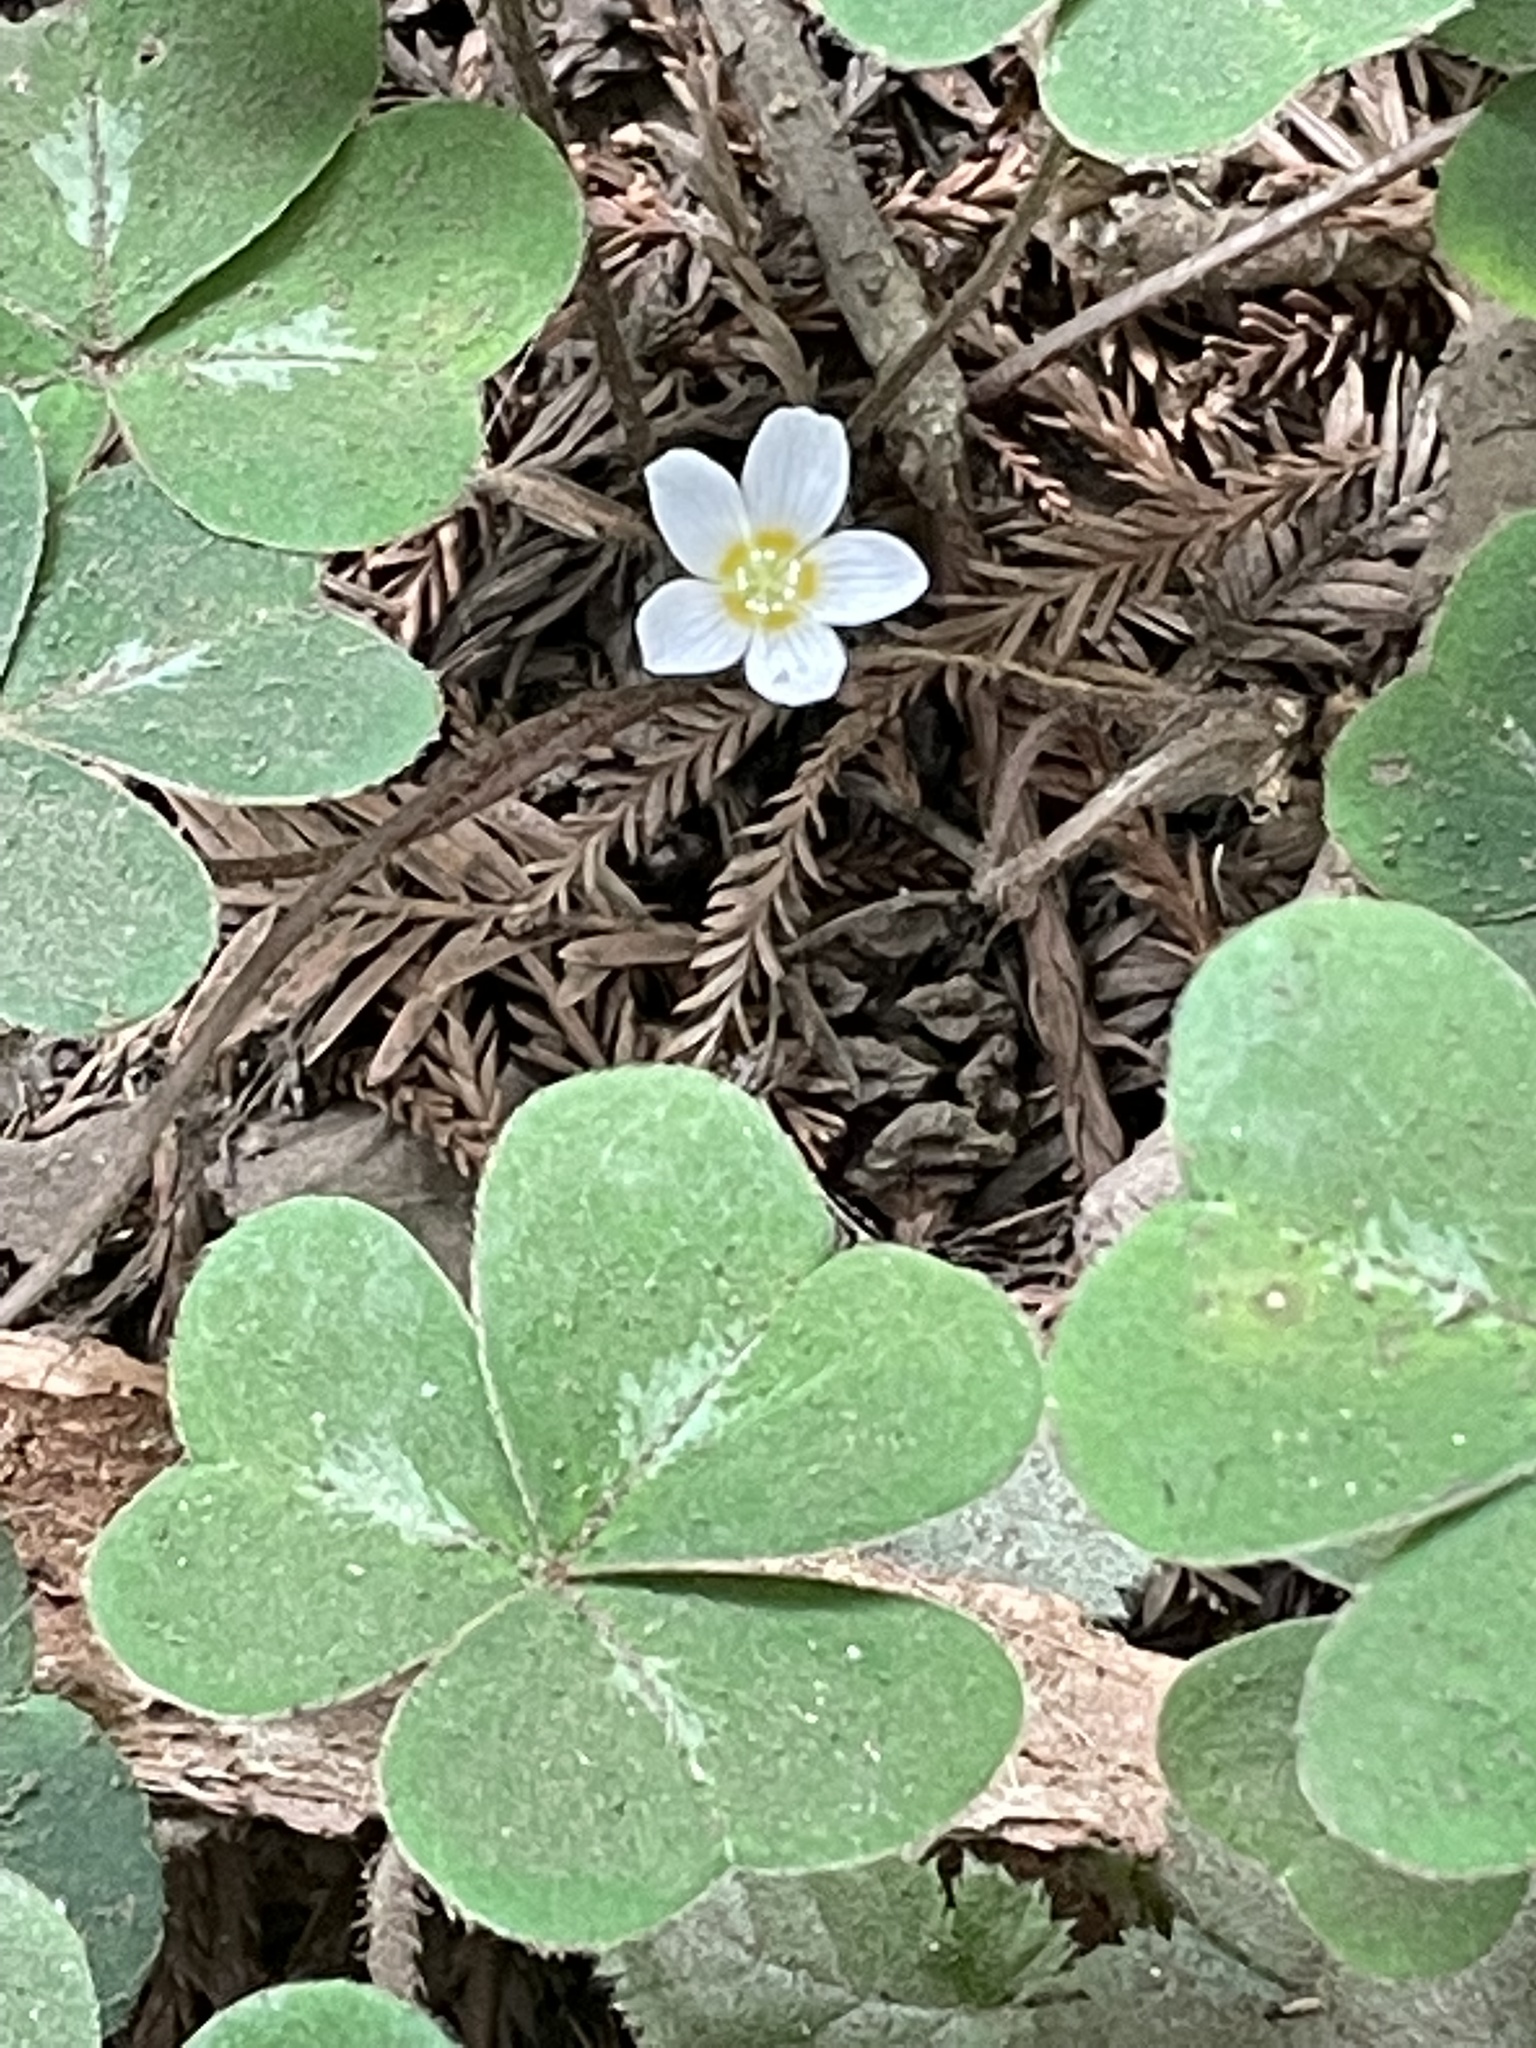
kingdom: Plantae
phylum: Tracheophyta
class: Magnoliopsida
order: Oxalidales
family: Oxalidaceae
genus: Oxalis
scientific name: Oxalis oregana
